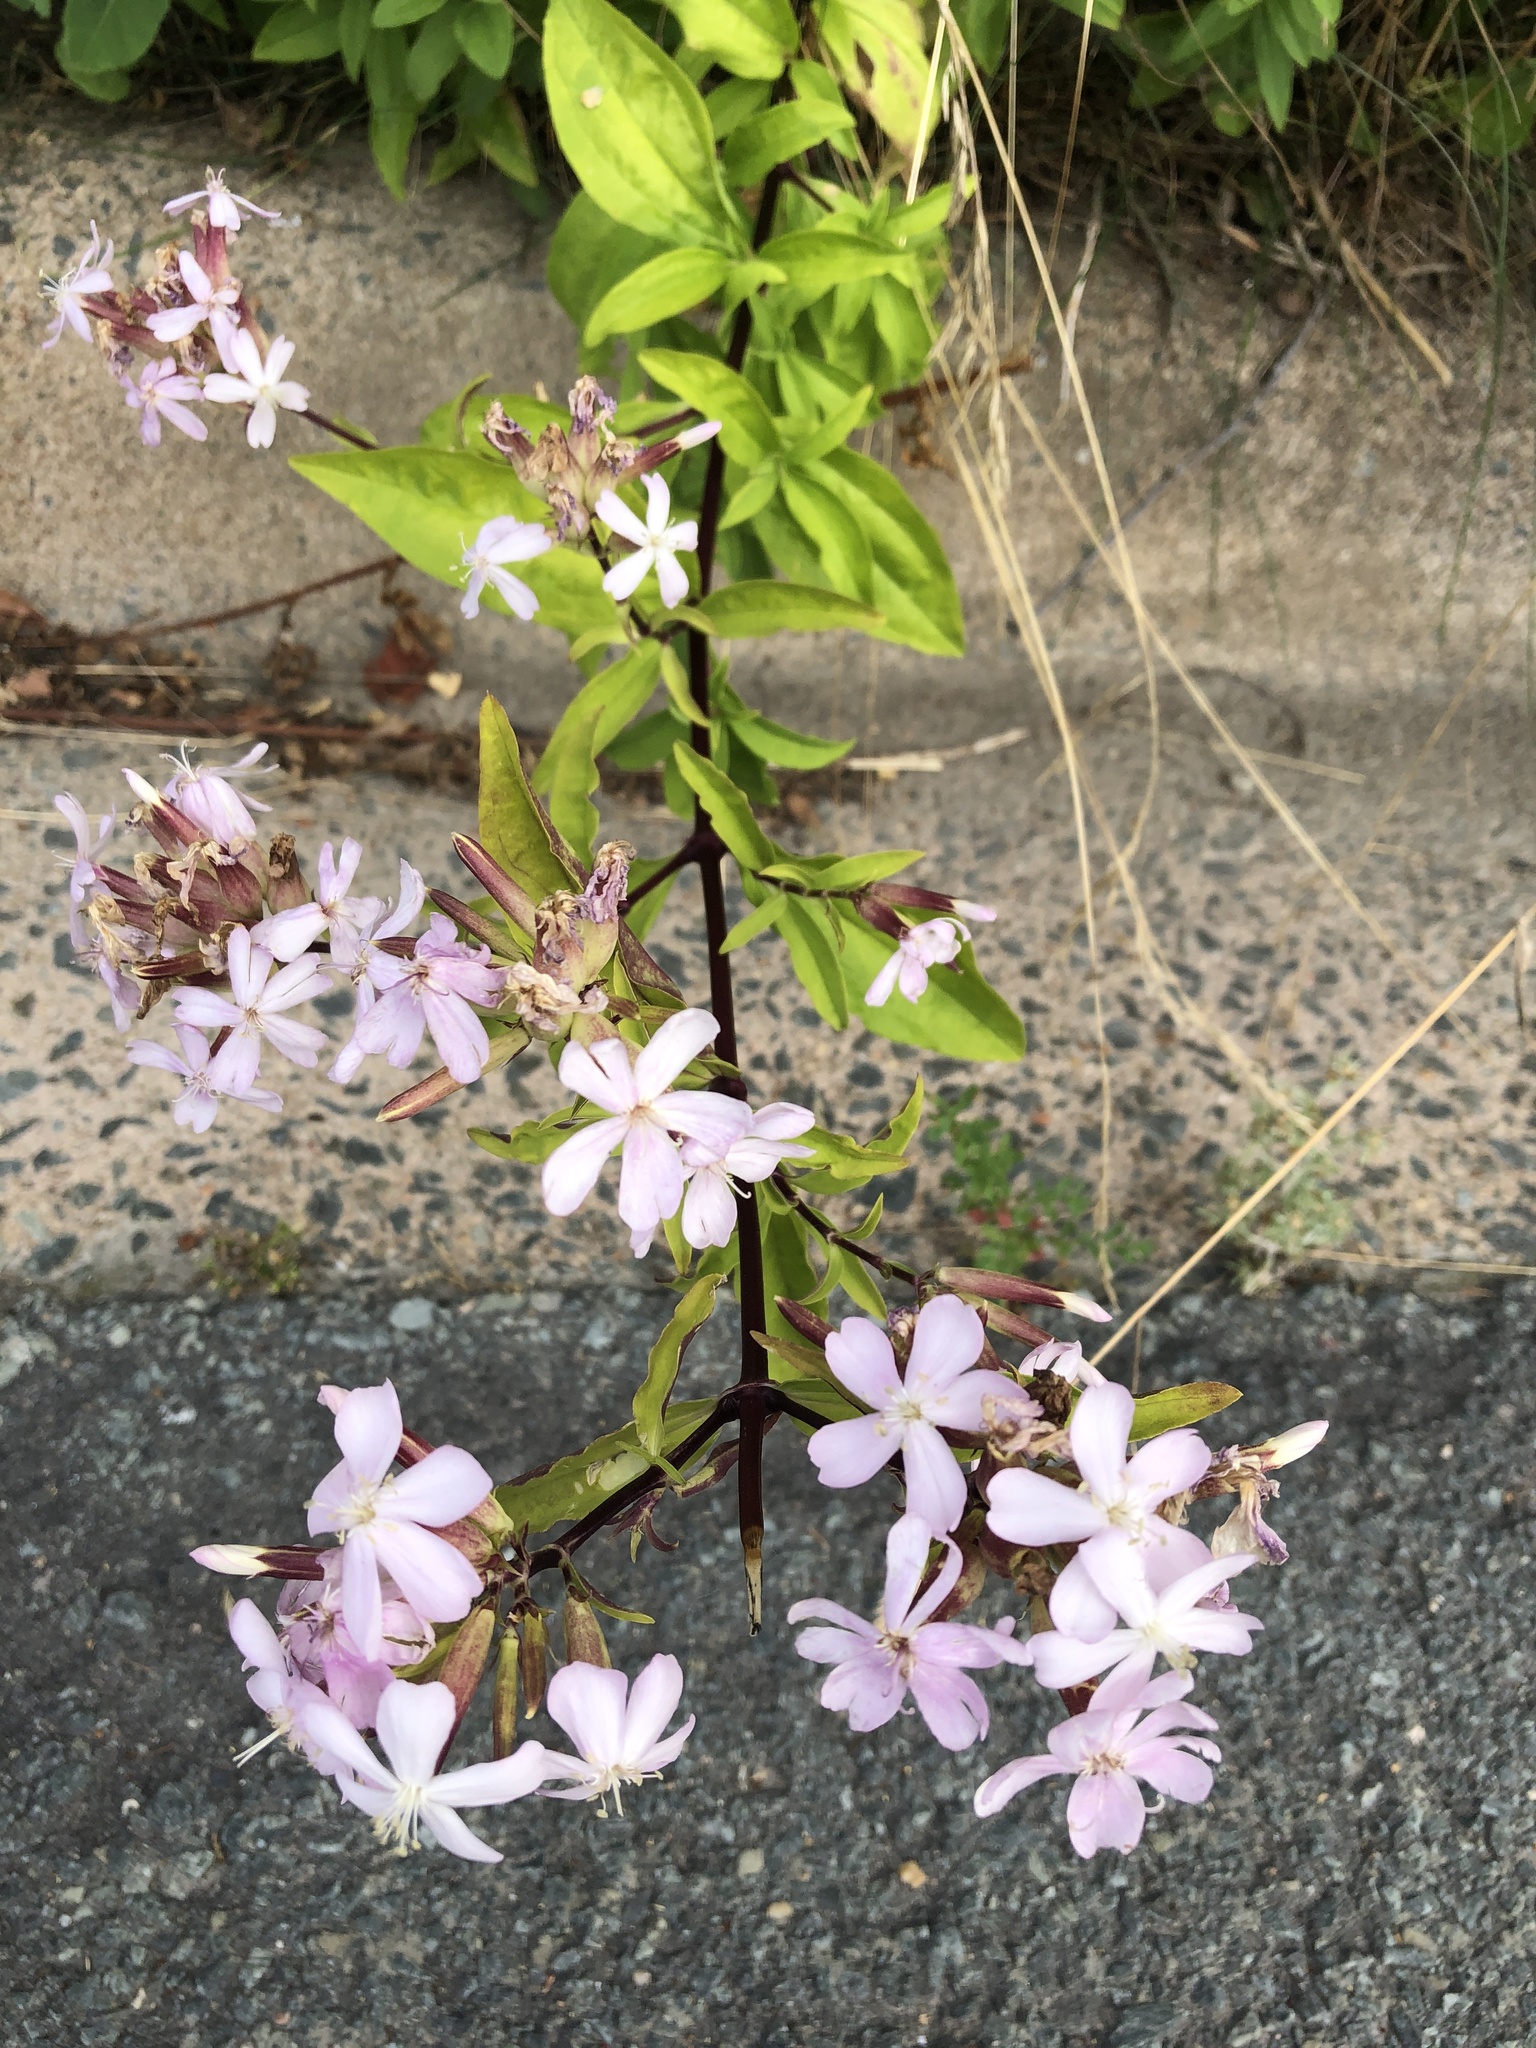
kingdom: Plantae
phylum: Tracheophyta
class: Magnoliopsida
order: Caryophyllales
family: Caryophyllaceae
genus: Saponaria
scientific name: Saponaria officinalis
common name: Soapwort
